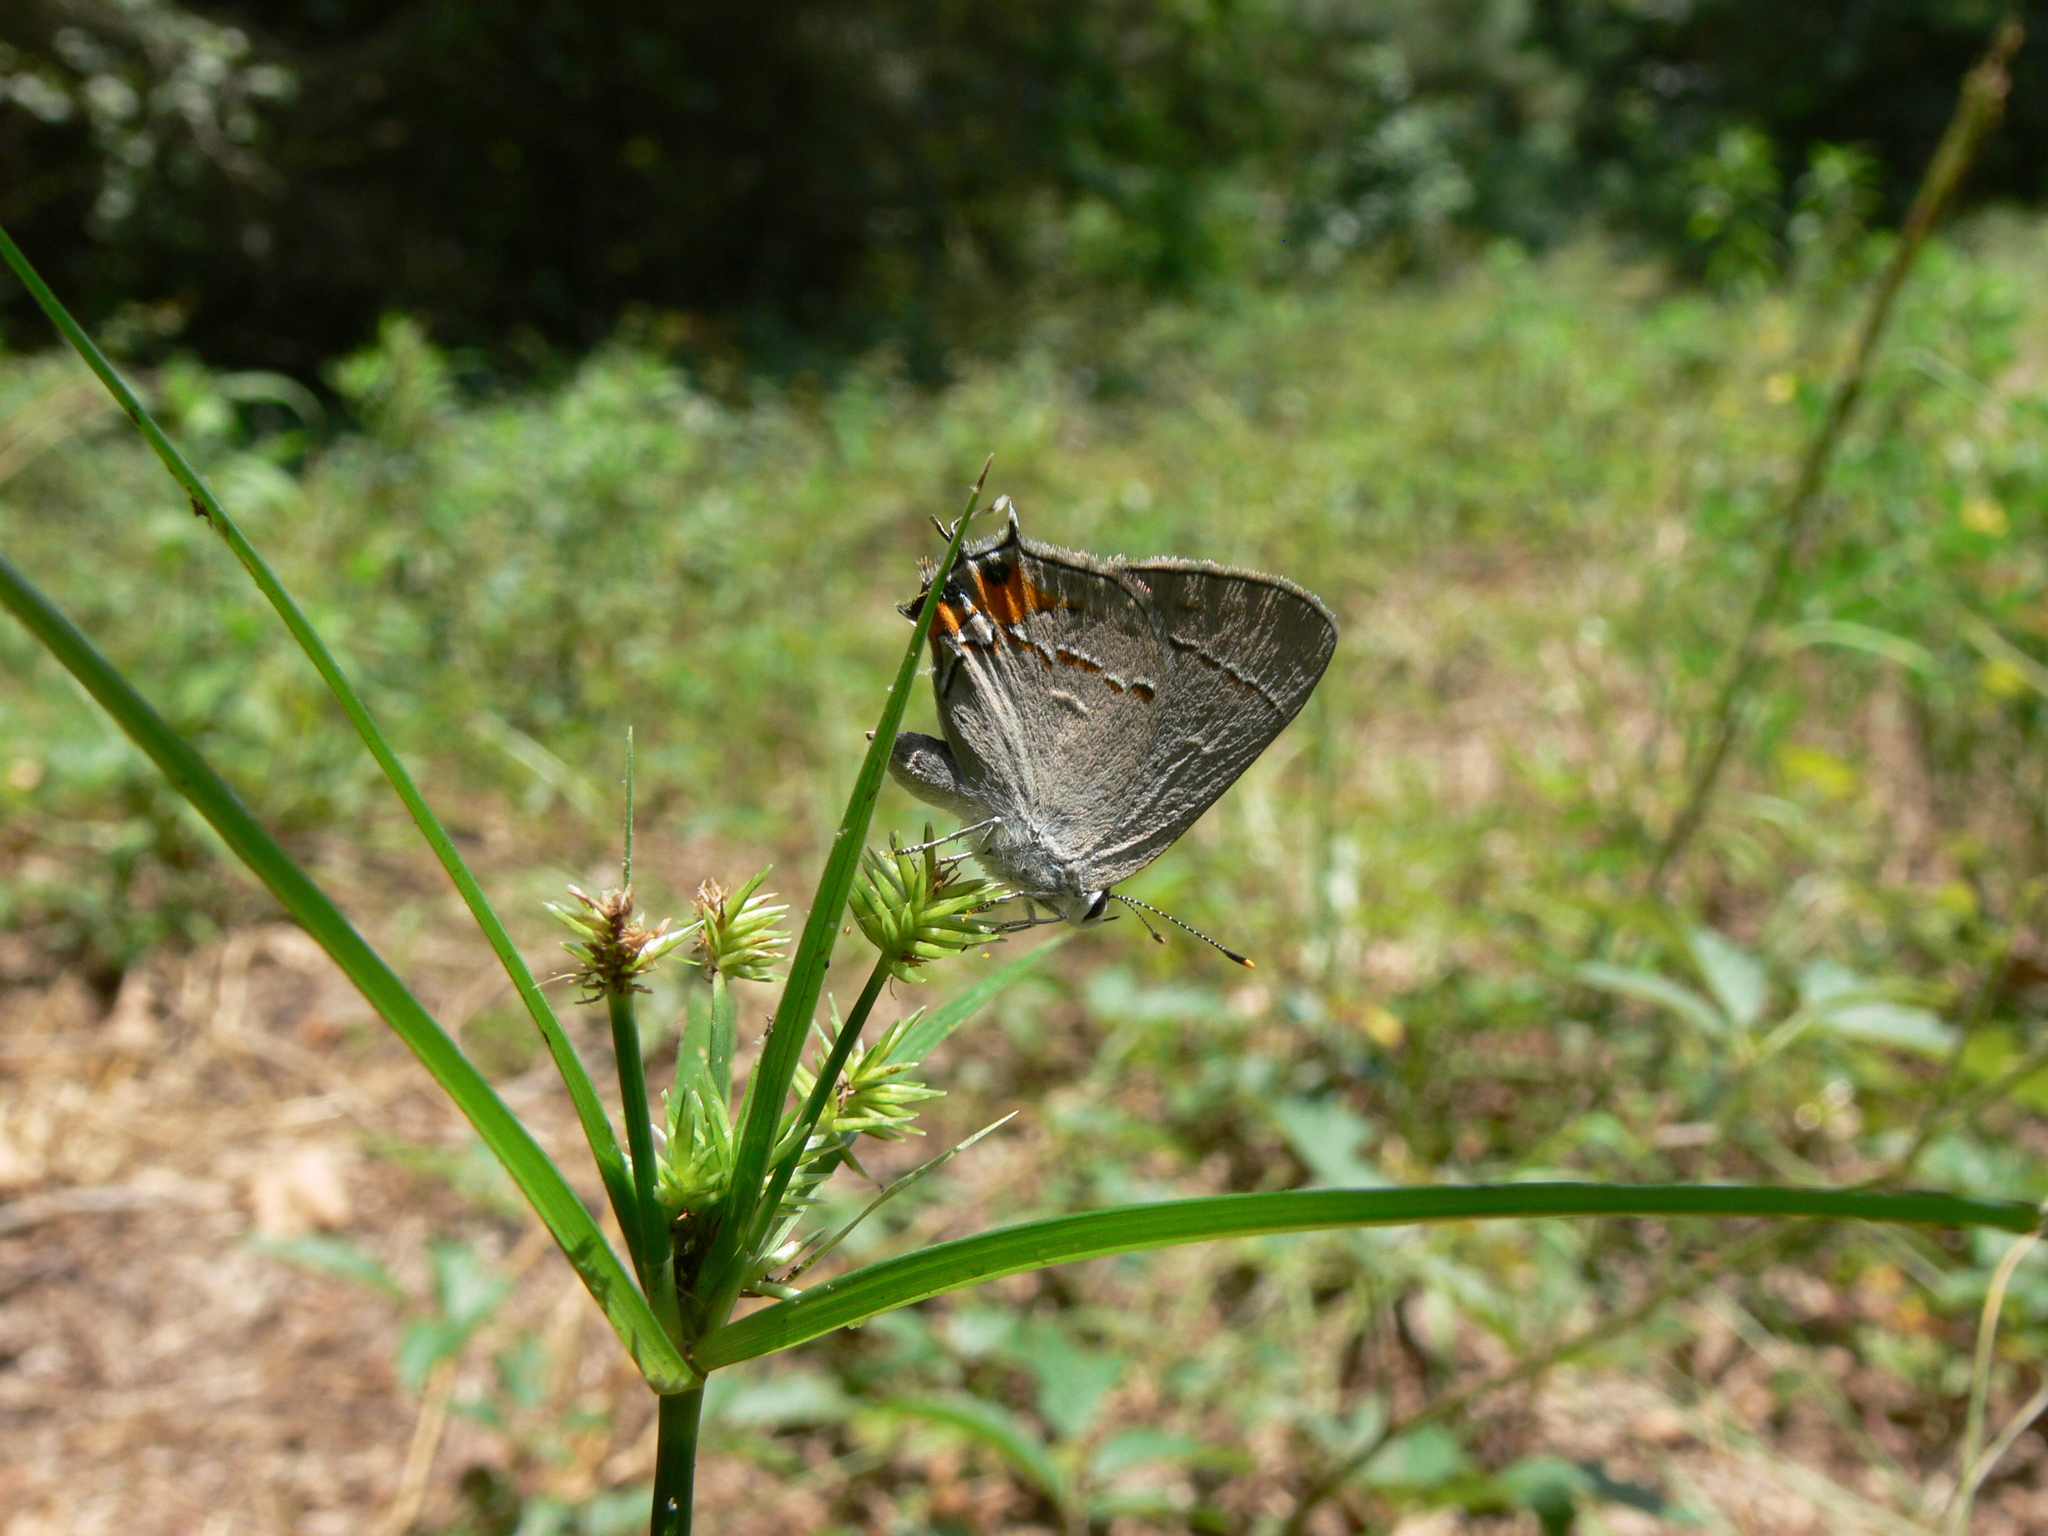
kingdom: Animalia
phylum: Arthropoda
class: Insecta
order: Lepidoptera
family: Lycaenidae
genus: Strymon
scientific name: Strymon melinus
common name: Gray hairstreak
